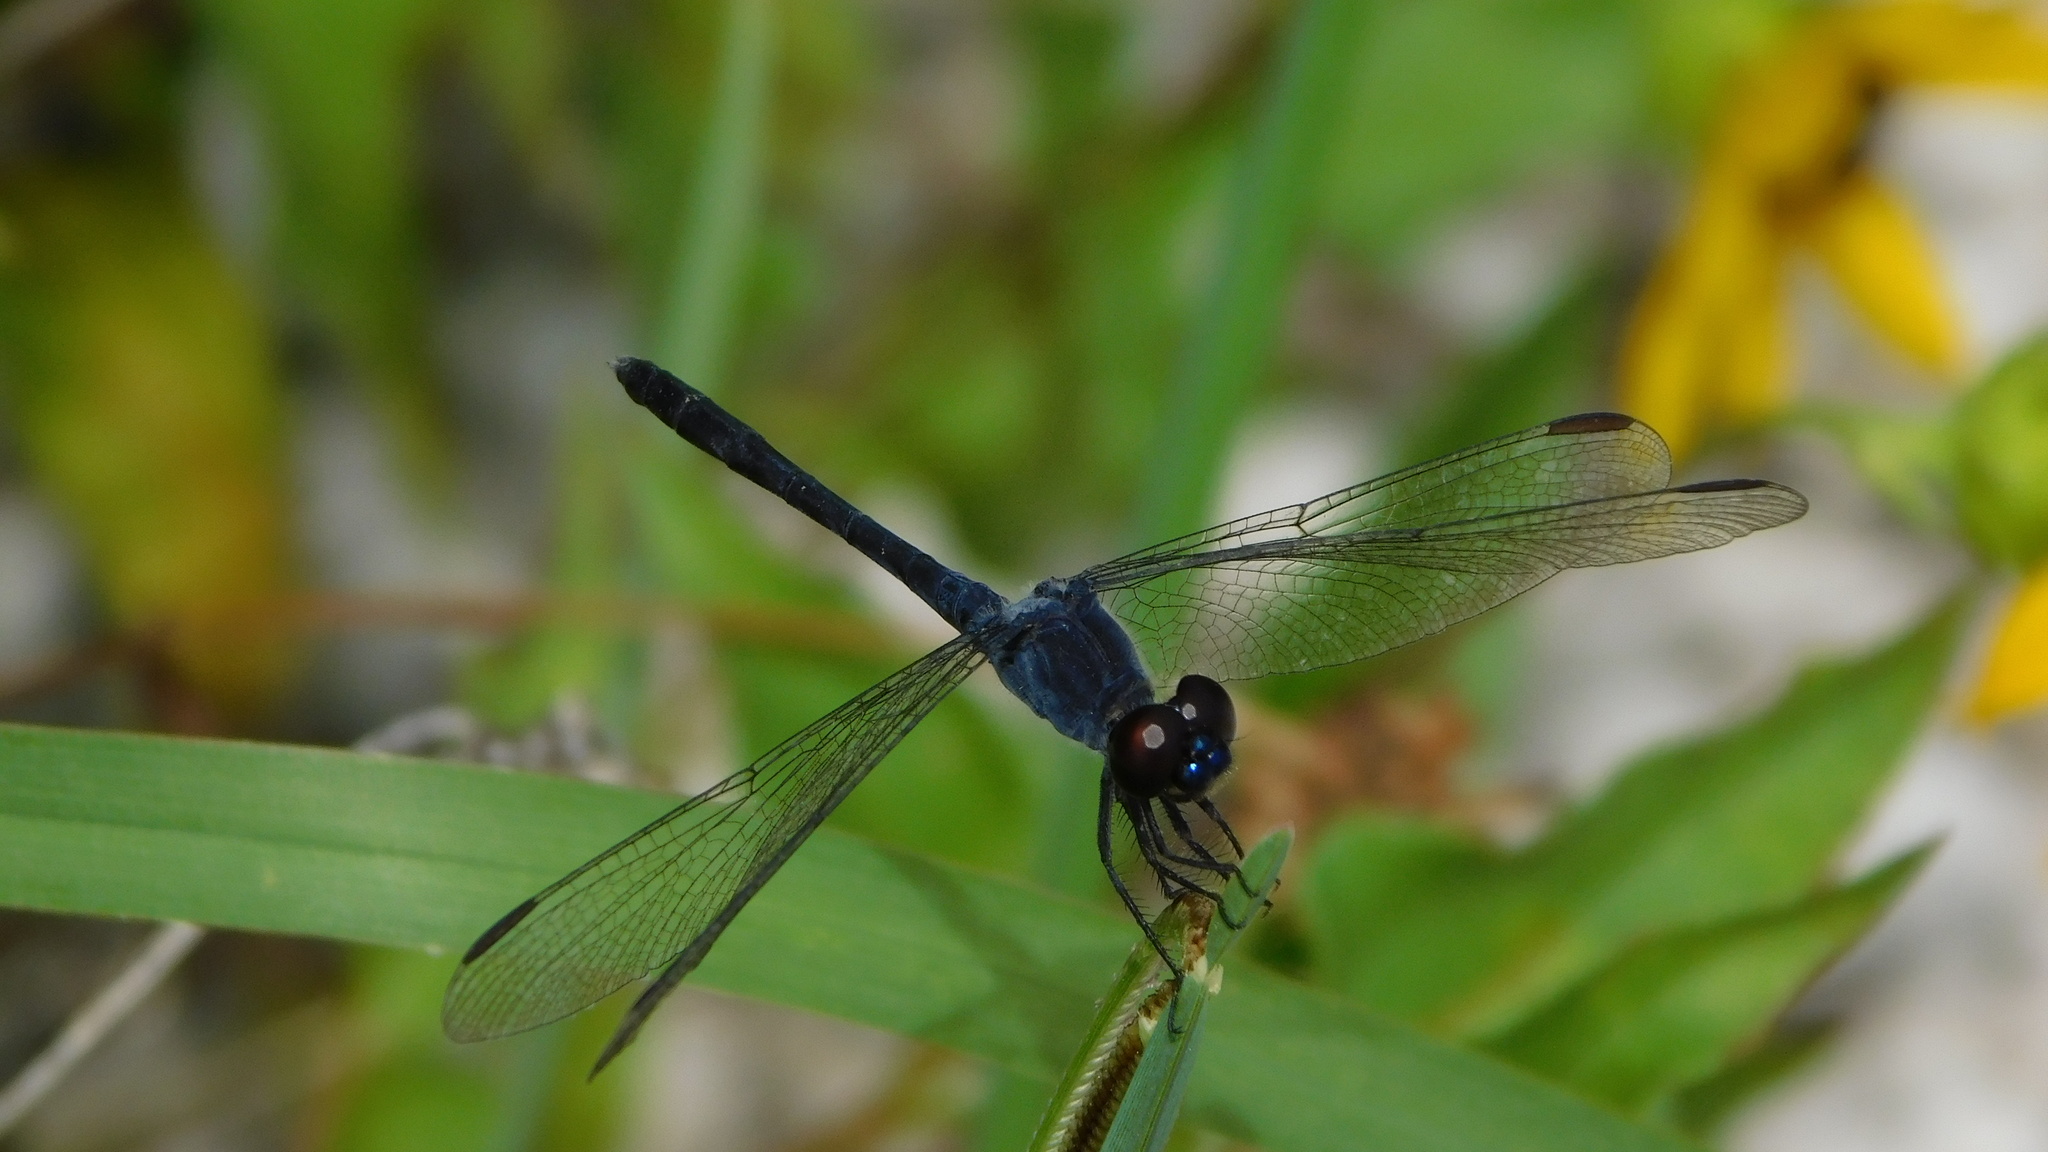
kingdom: Animalia
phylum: Arthropoda
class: Insecta
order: Odonata
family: Libellulidae
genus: Erythrodiplax
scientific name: Erythrodiplax berenice
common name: Seaside dragonlet
